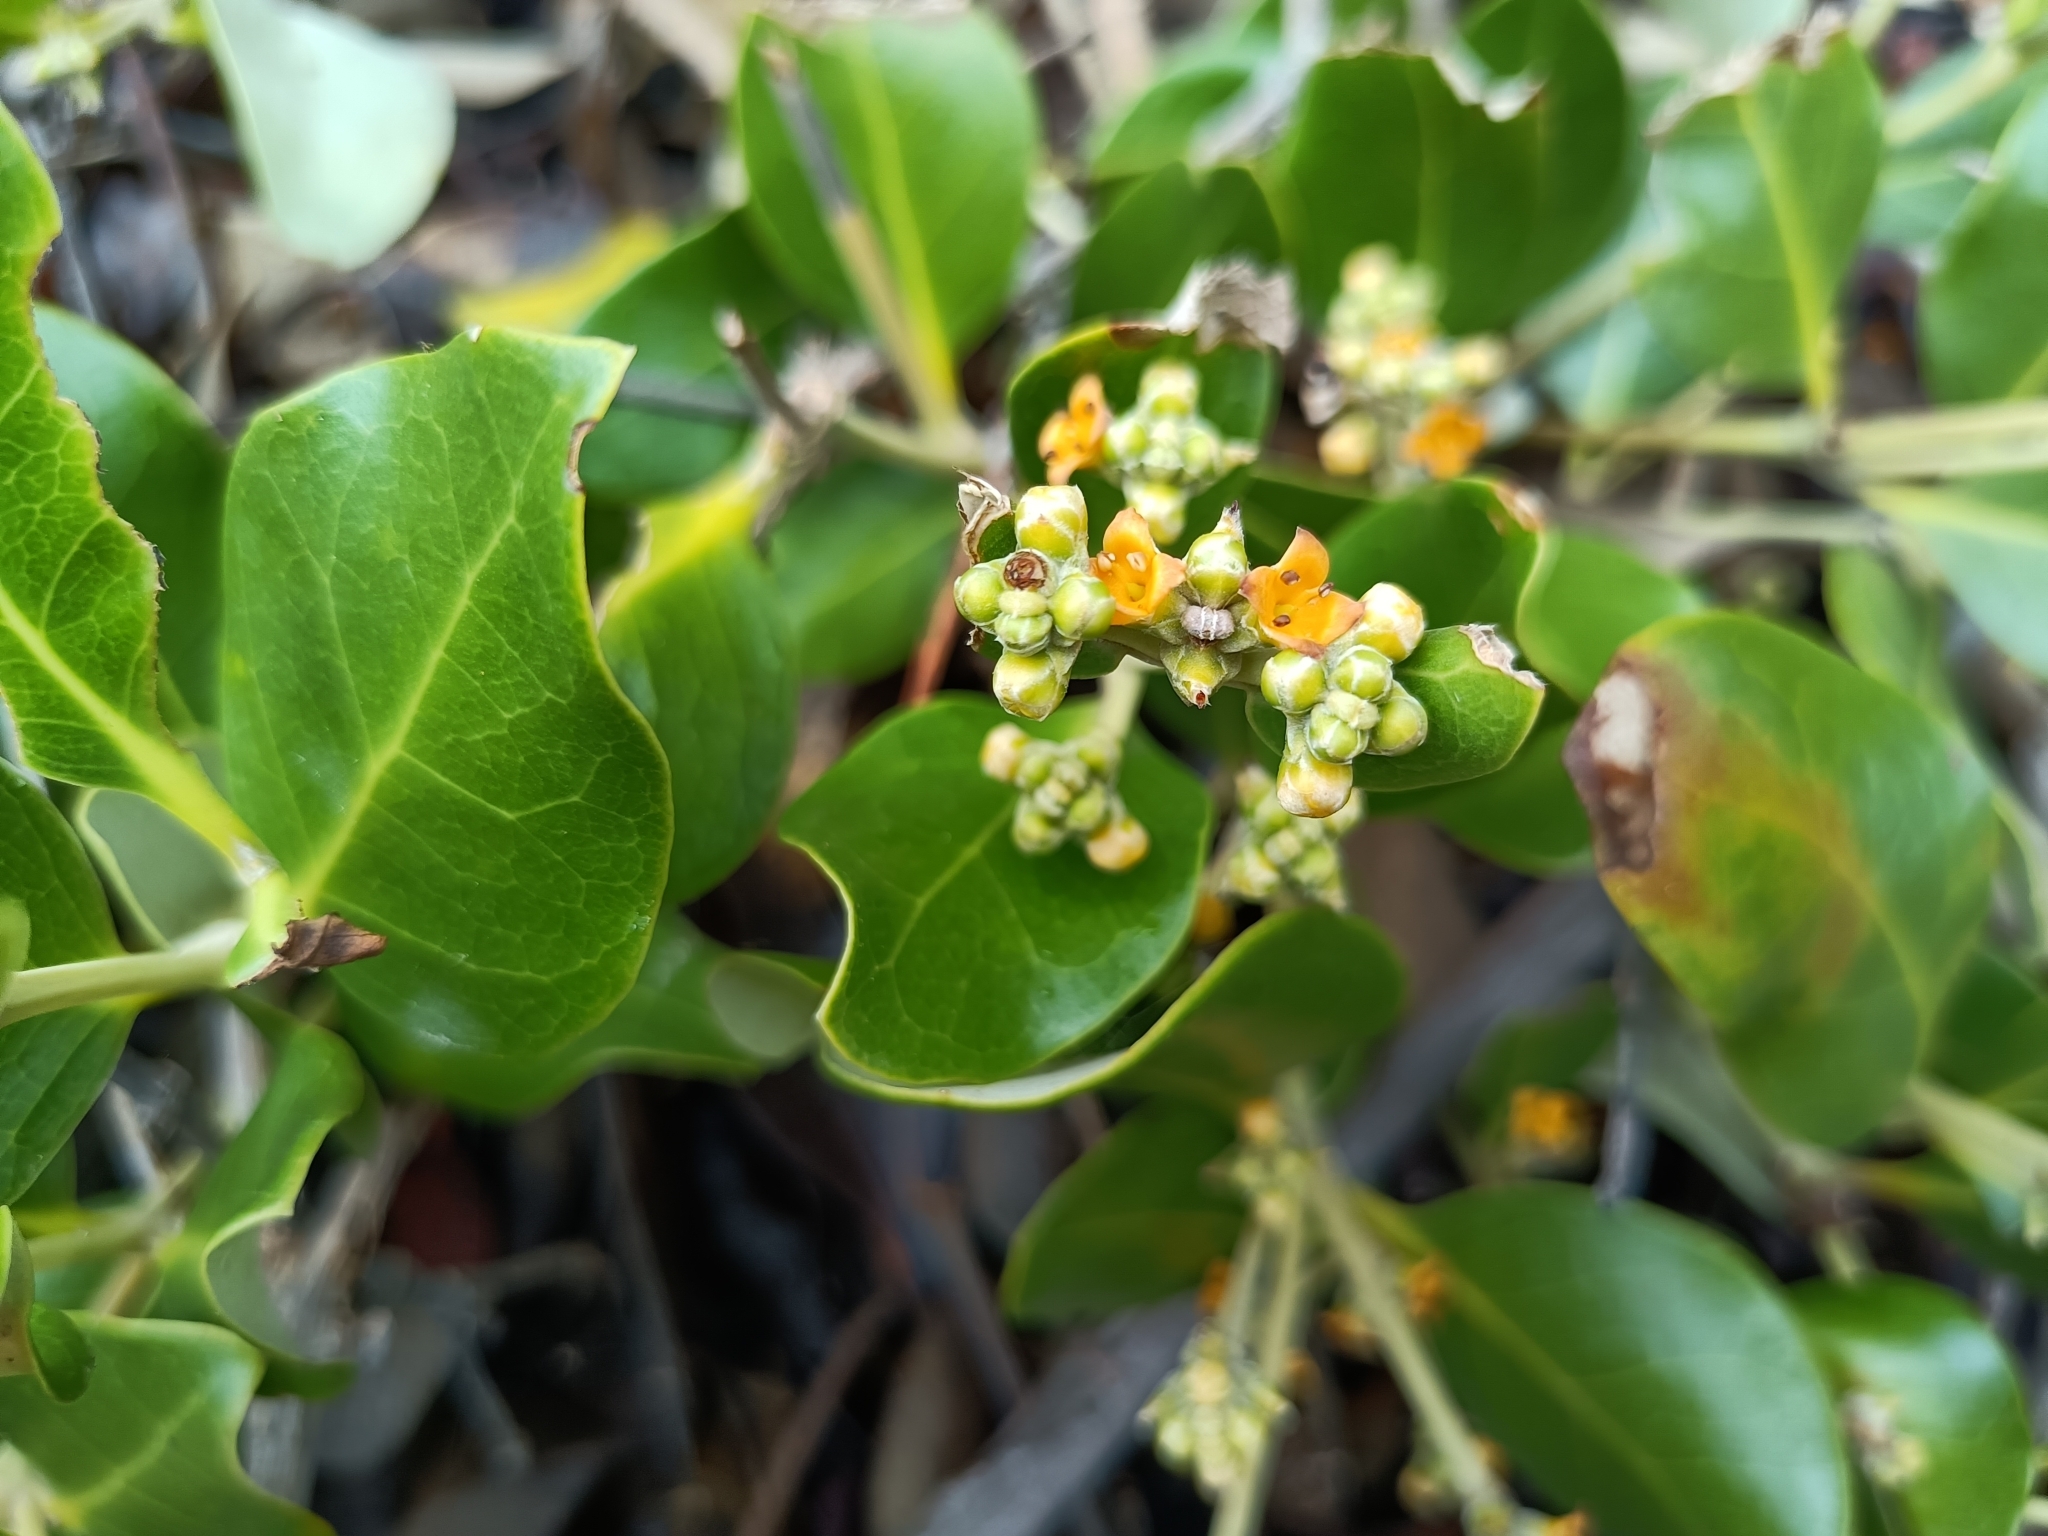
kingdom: Plantae
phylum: Tracheophyta
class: Magnoliopsida
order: Lamiales
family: Acanthaceae
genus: Avicennia
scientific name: Avicennia marina
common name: Gray mangrove
